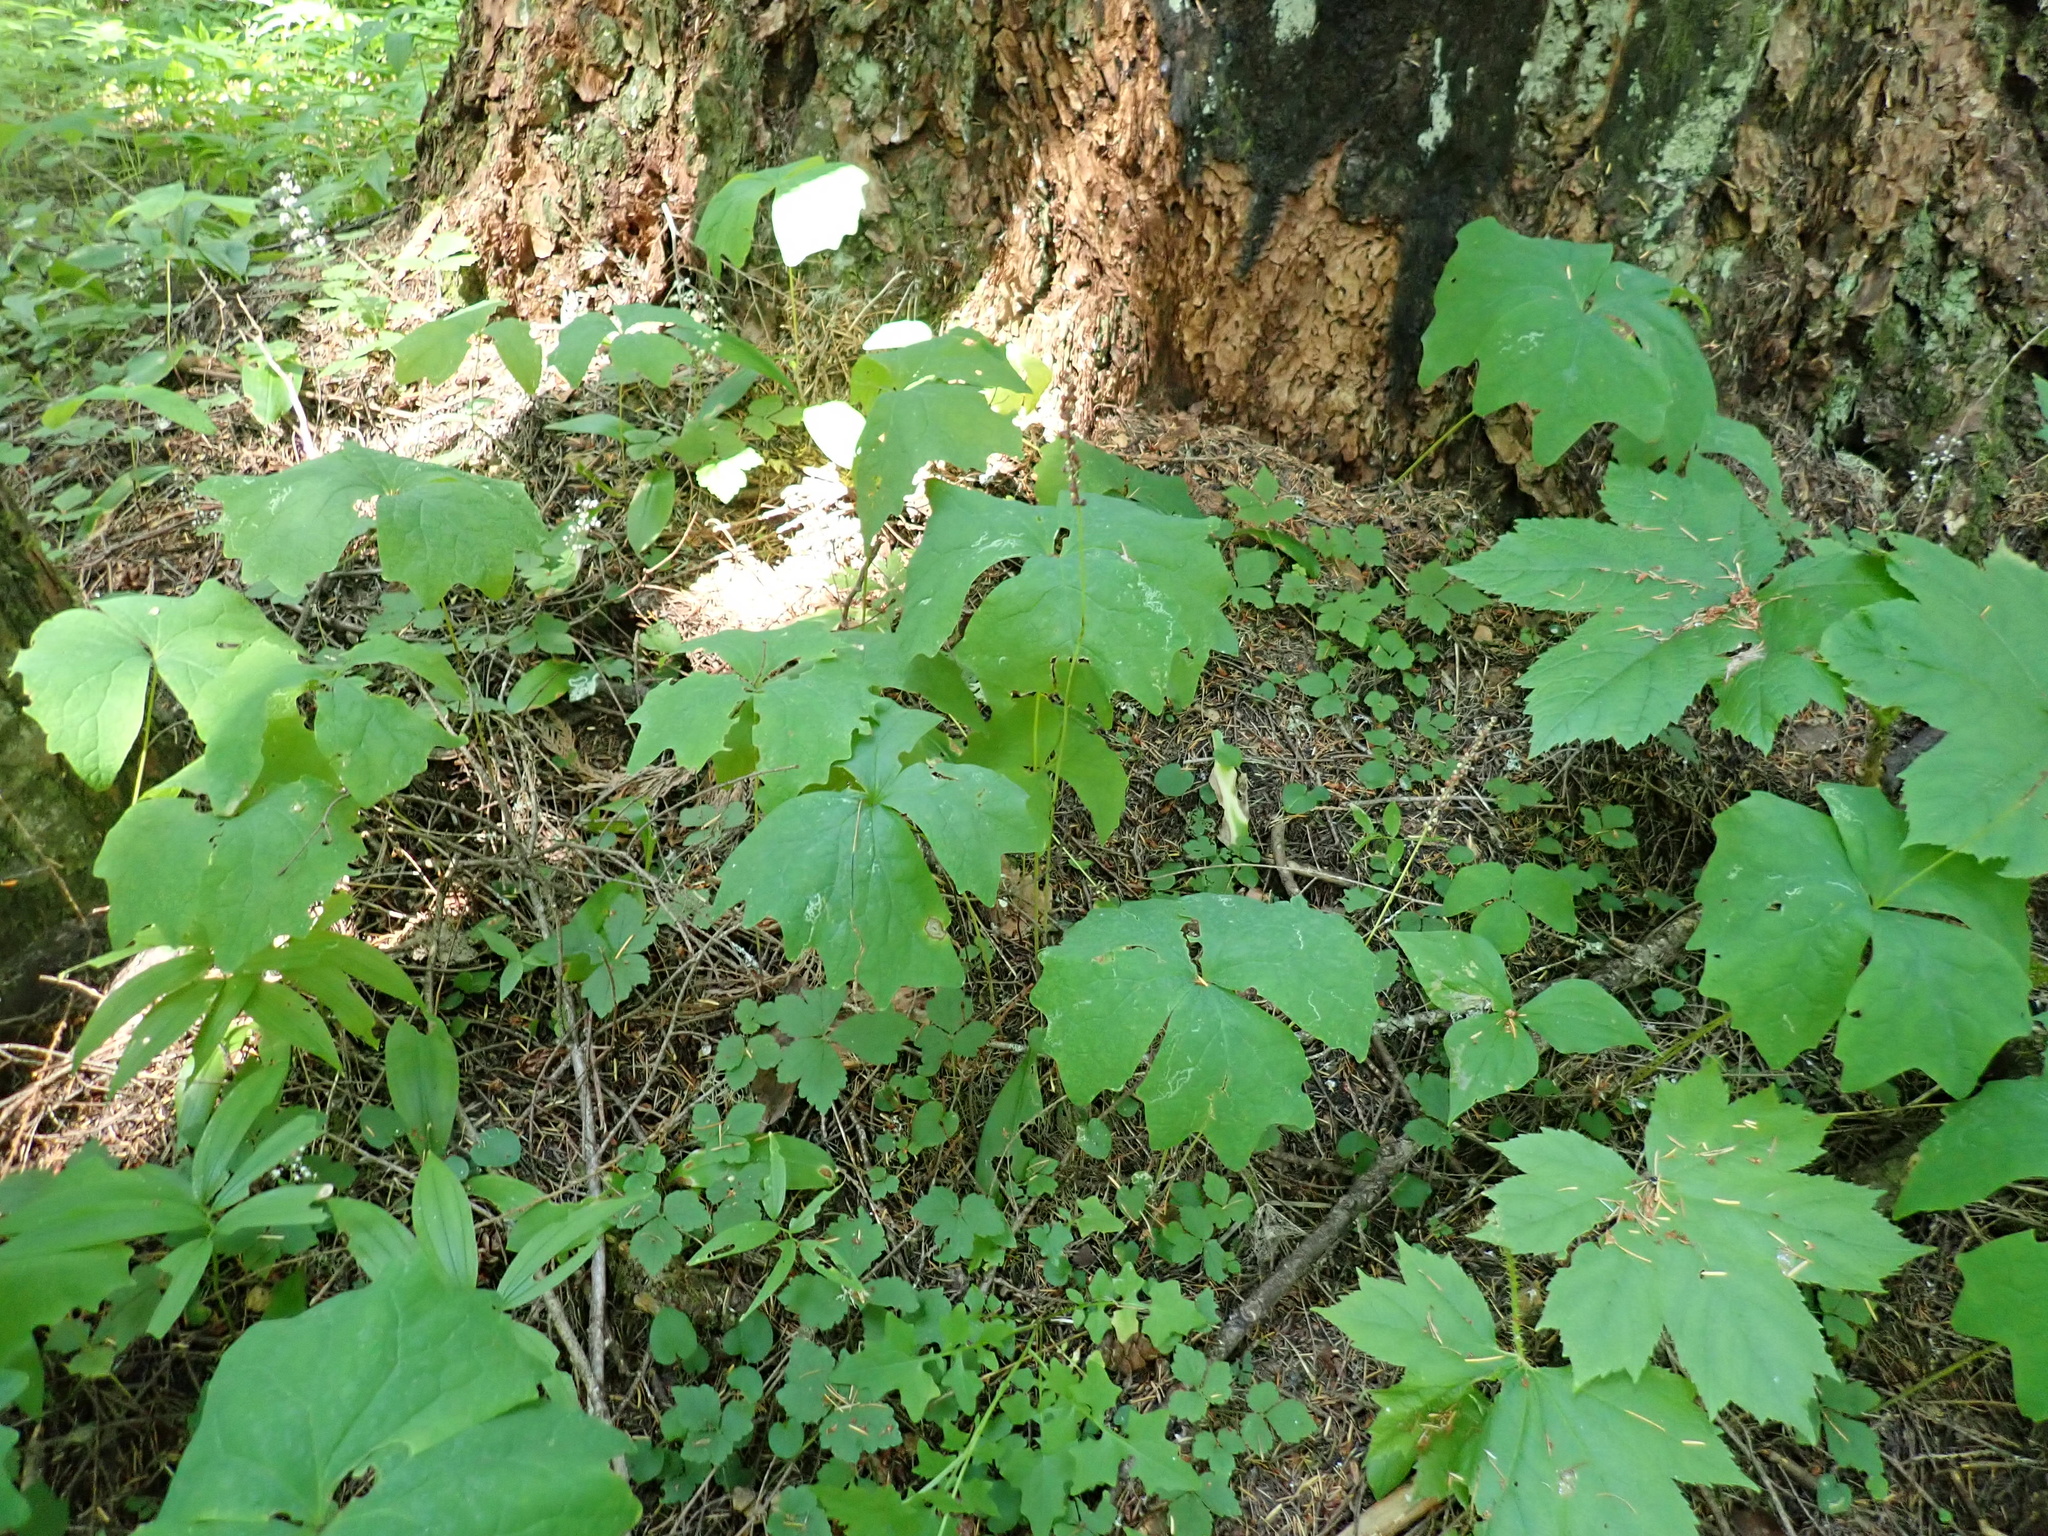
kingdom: Plantae
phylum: Tracheophyta
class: Magnoliopsida
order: Ranunculales
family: Berberidaceae
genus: Achlys
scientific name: Achlys triphylla
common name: Vanilla-leaf
